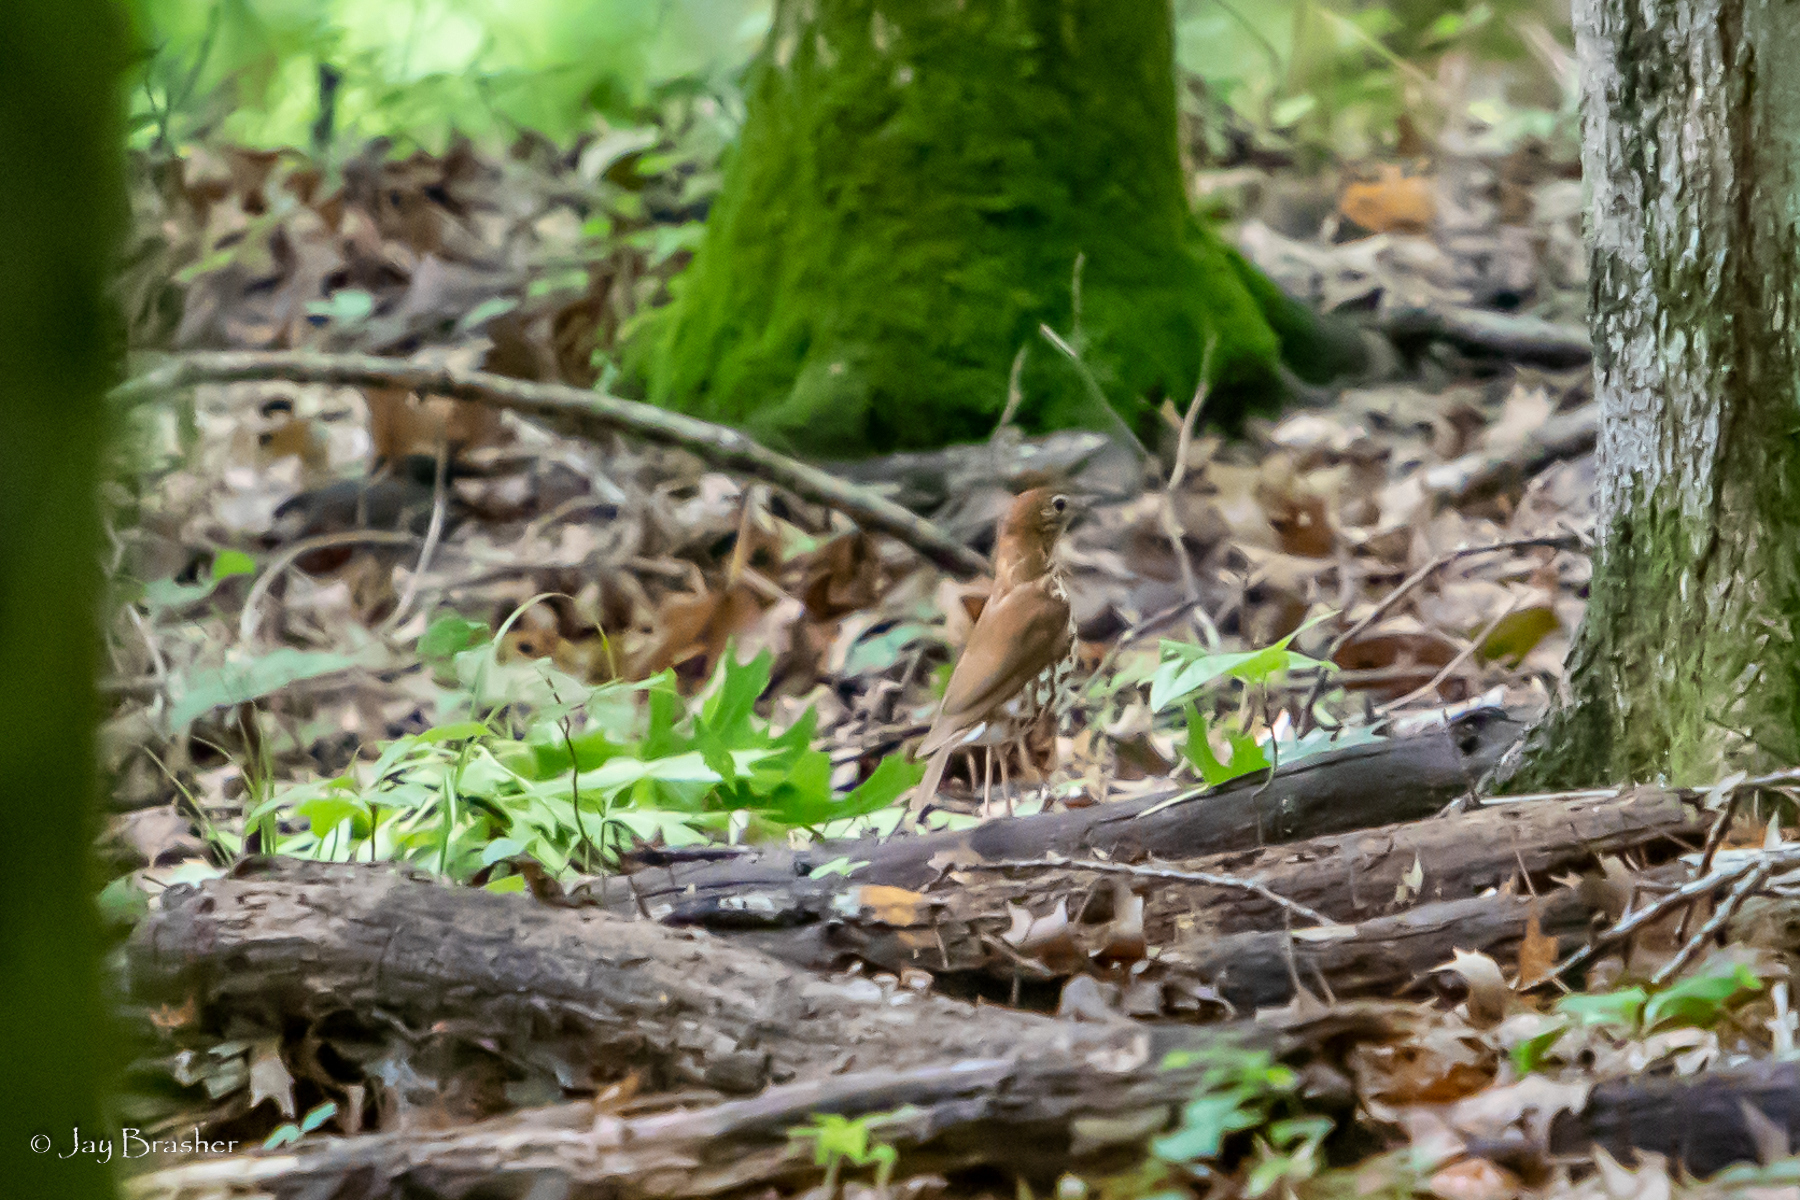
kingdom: Animalia
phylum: Chordata
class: Aves
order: Passeriformes
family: Turdidae
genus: Hylocichla
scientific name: Hylocichla mustelina
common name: Wood thrush
